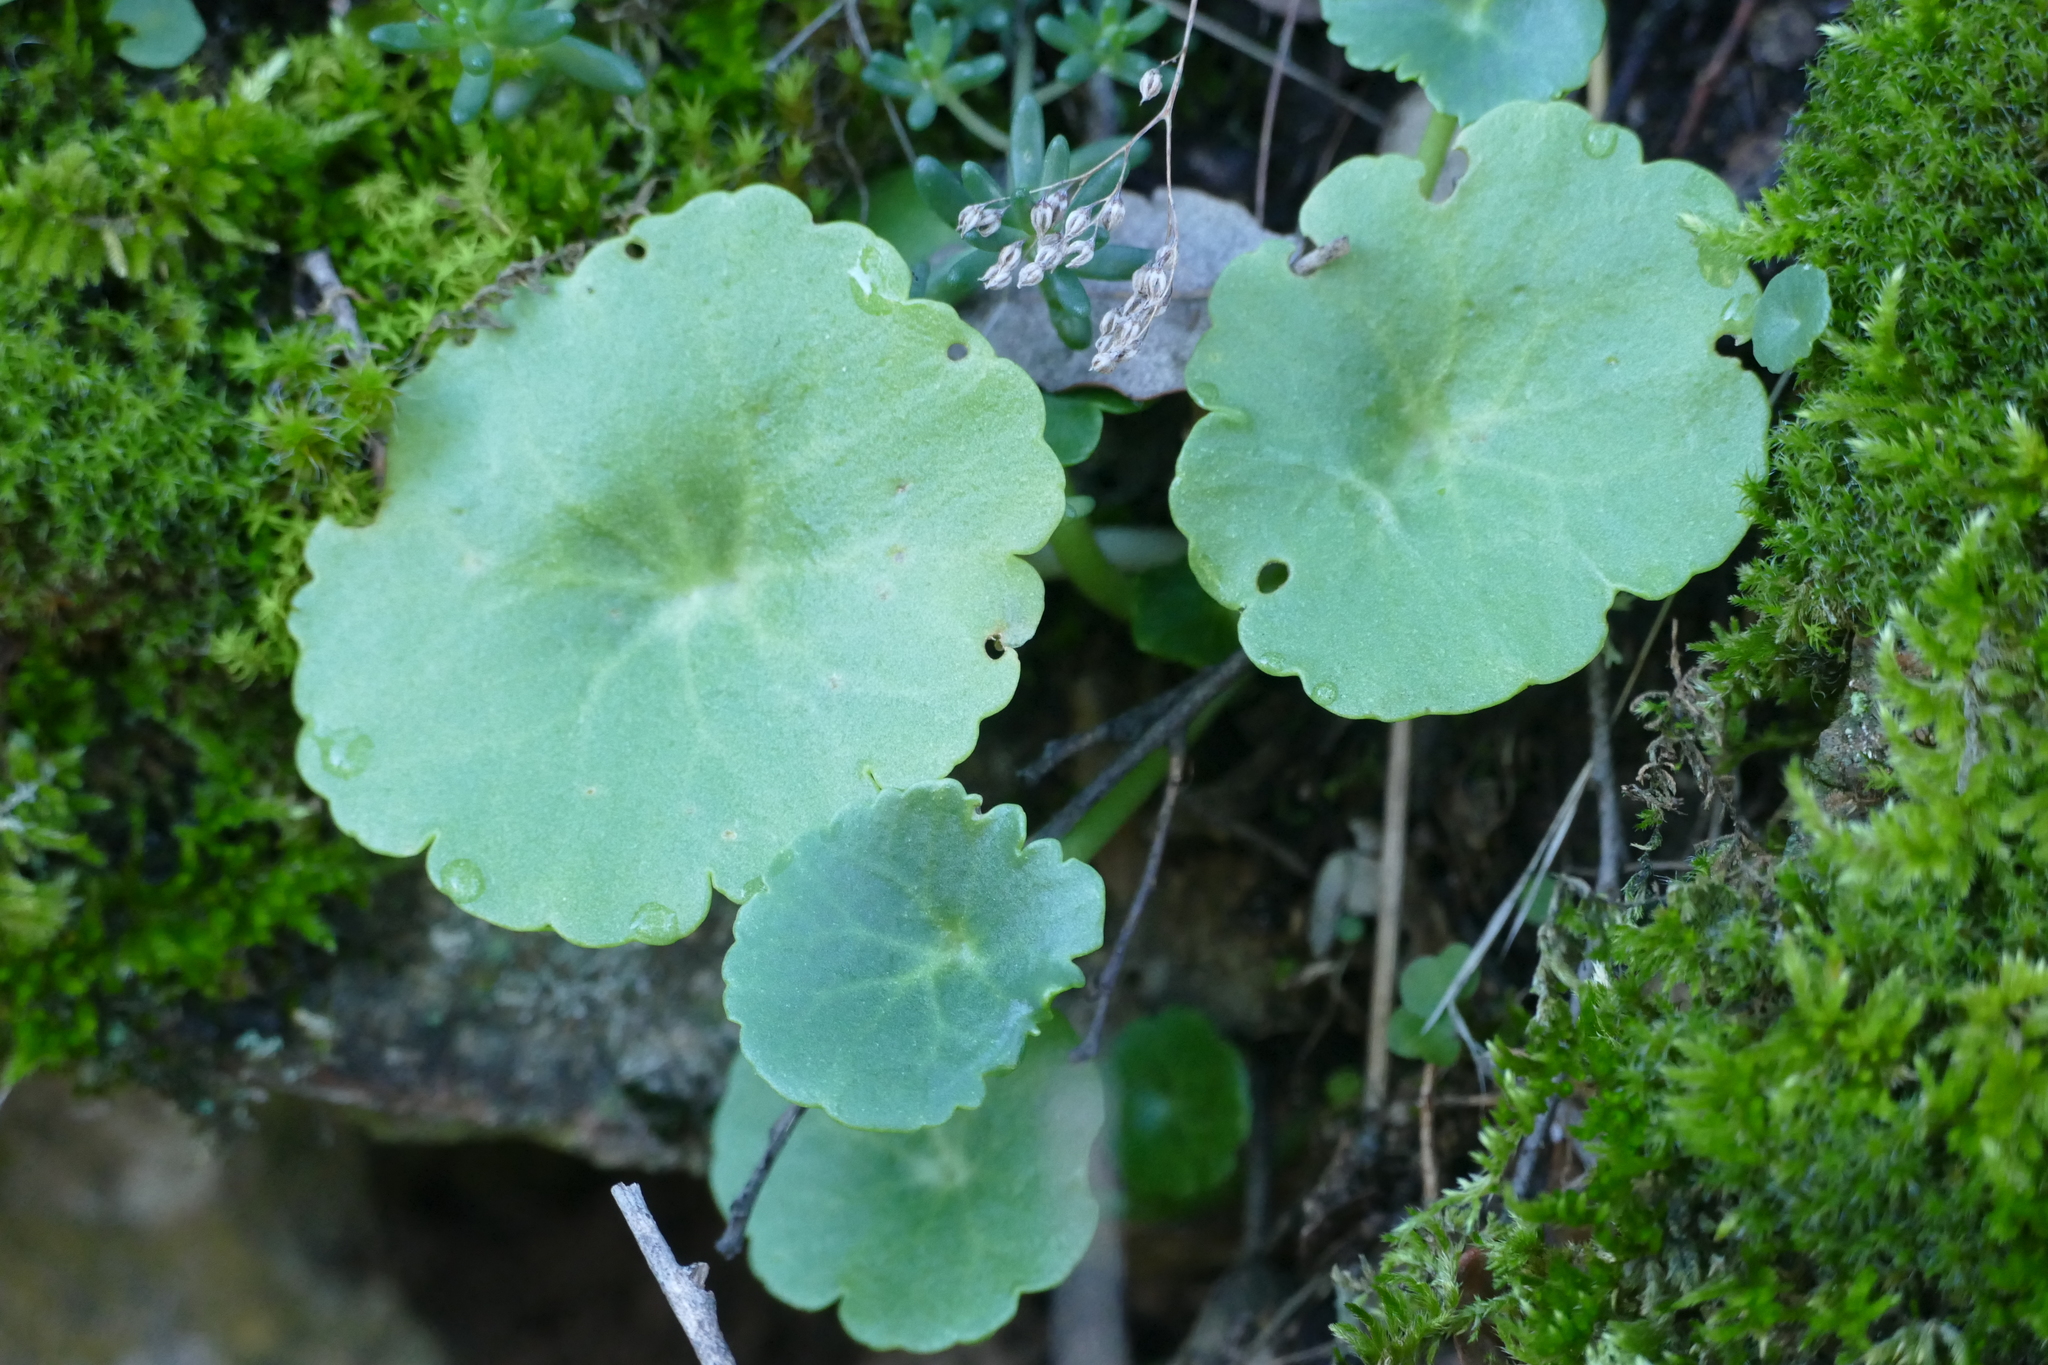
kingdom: Plantae
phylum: Tracheophyta
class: Magnoliopsida
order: Saxifragales
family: Crassulaceae
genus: Umbilicus
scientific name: Umbilicus rupestris
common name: Navelwort
